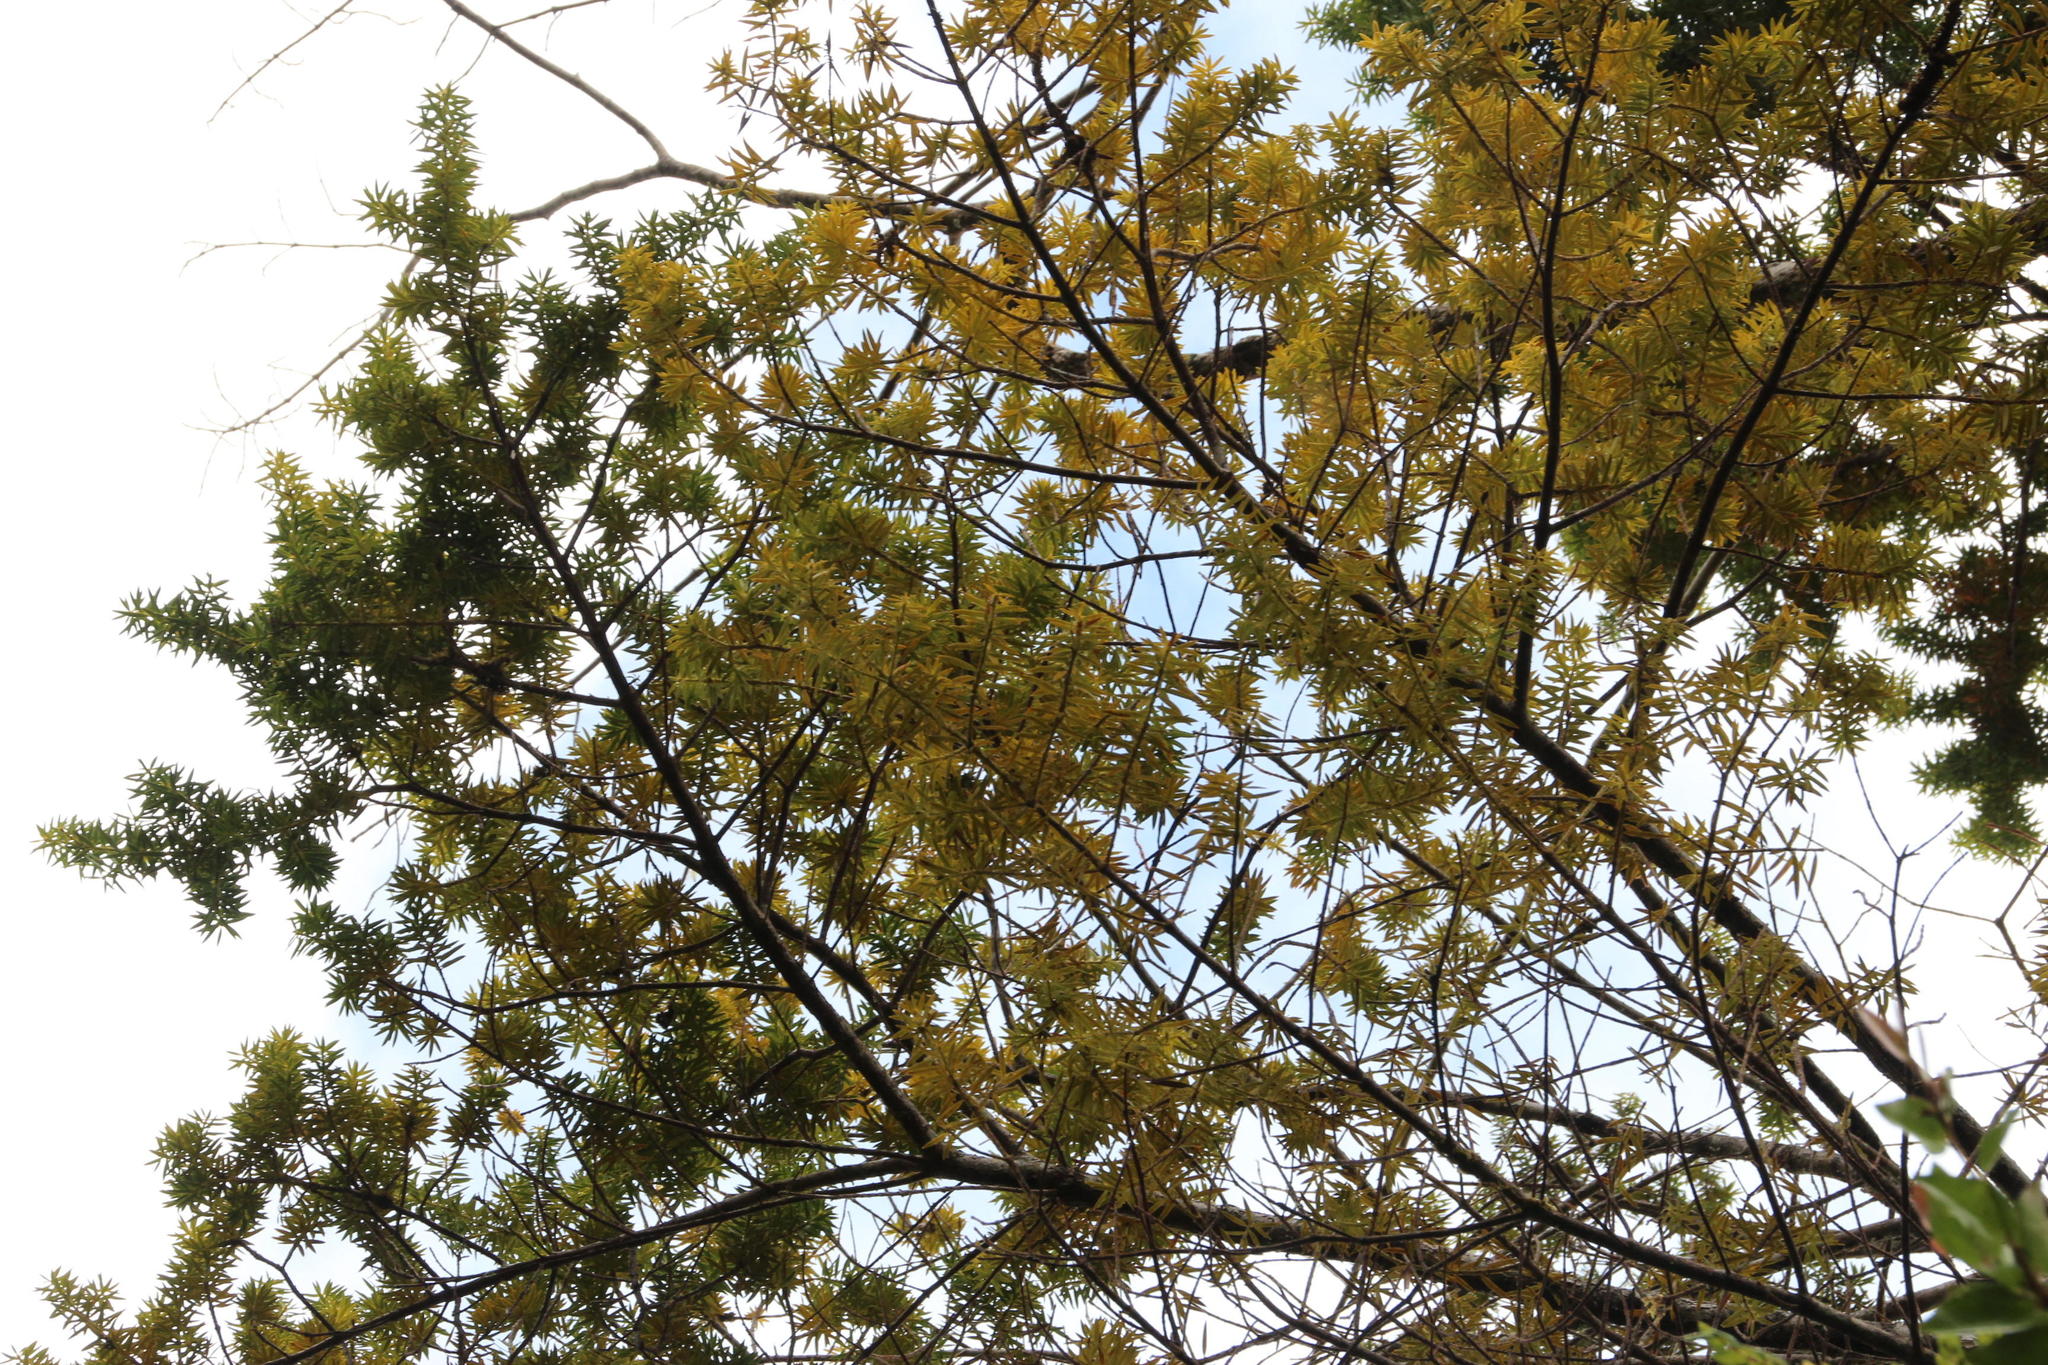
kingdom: Plantae
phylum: Tracheophyta
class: Pinopsida
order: Pinales
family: Podocarpaceae
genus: Podocarpus
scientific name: Podocarpus nubigenus
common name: Cloud podocarp
